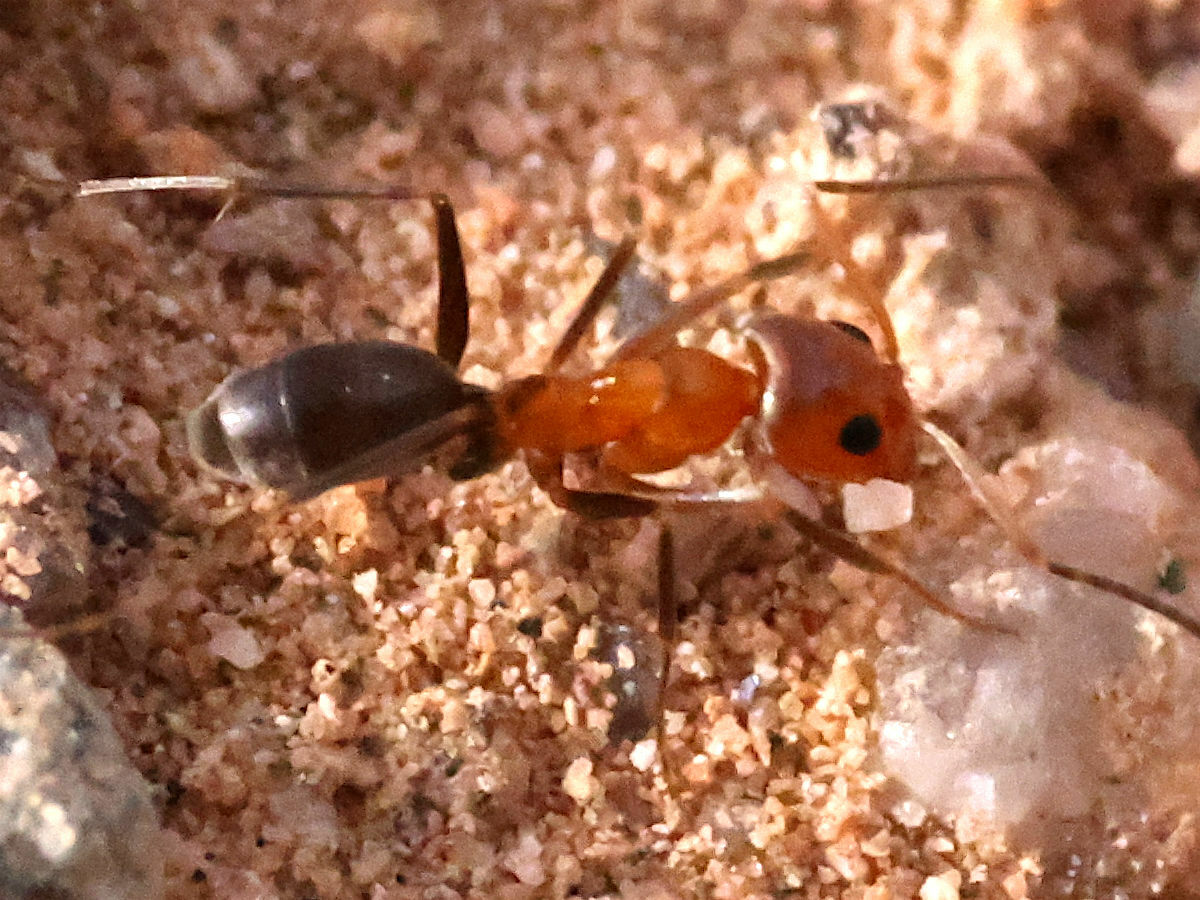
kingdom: Animalia
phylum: Arthropoda
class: Insecta
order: Hymenoptera
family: Formicidae
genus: Dorymyrmex
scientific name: Dorymyrmex bicolor
